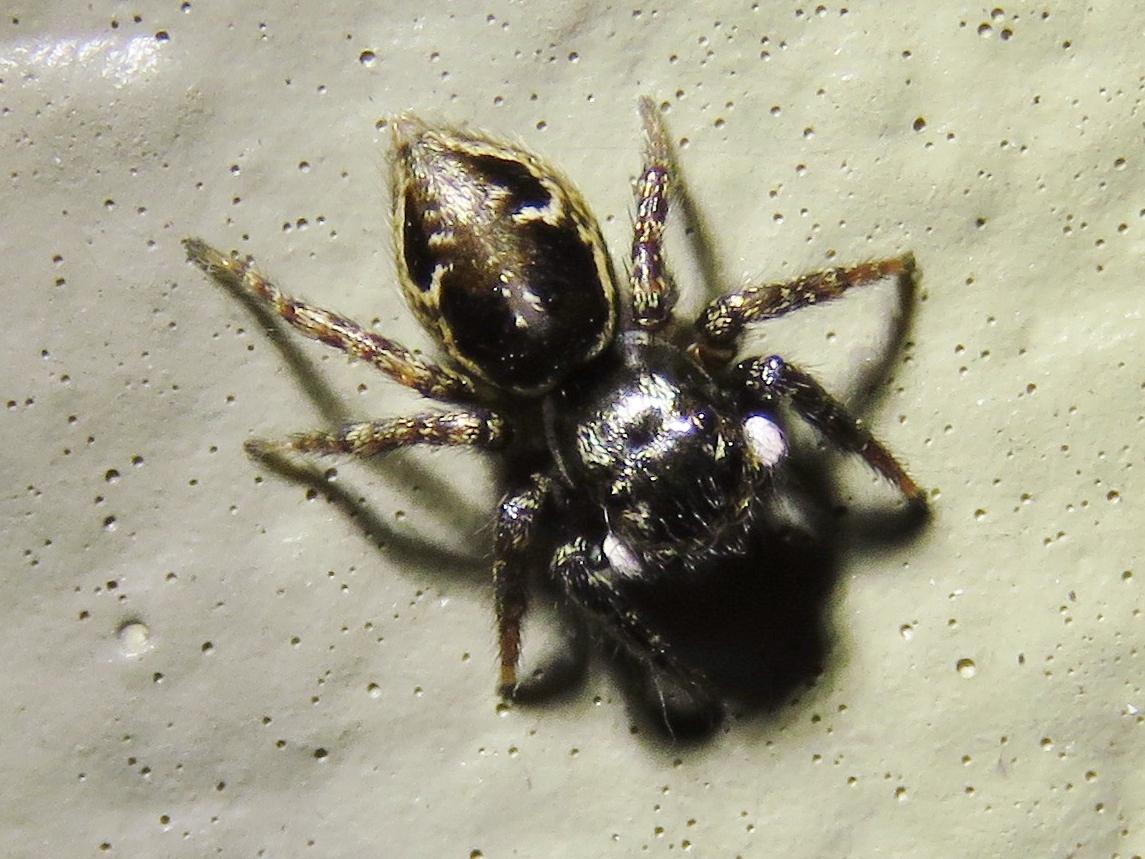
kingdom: Animalia
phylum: Arthropoda
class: Arachnida
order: Araneae
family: Salticidae
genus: Anasaitis
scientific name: Anasaitis canosa
